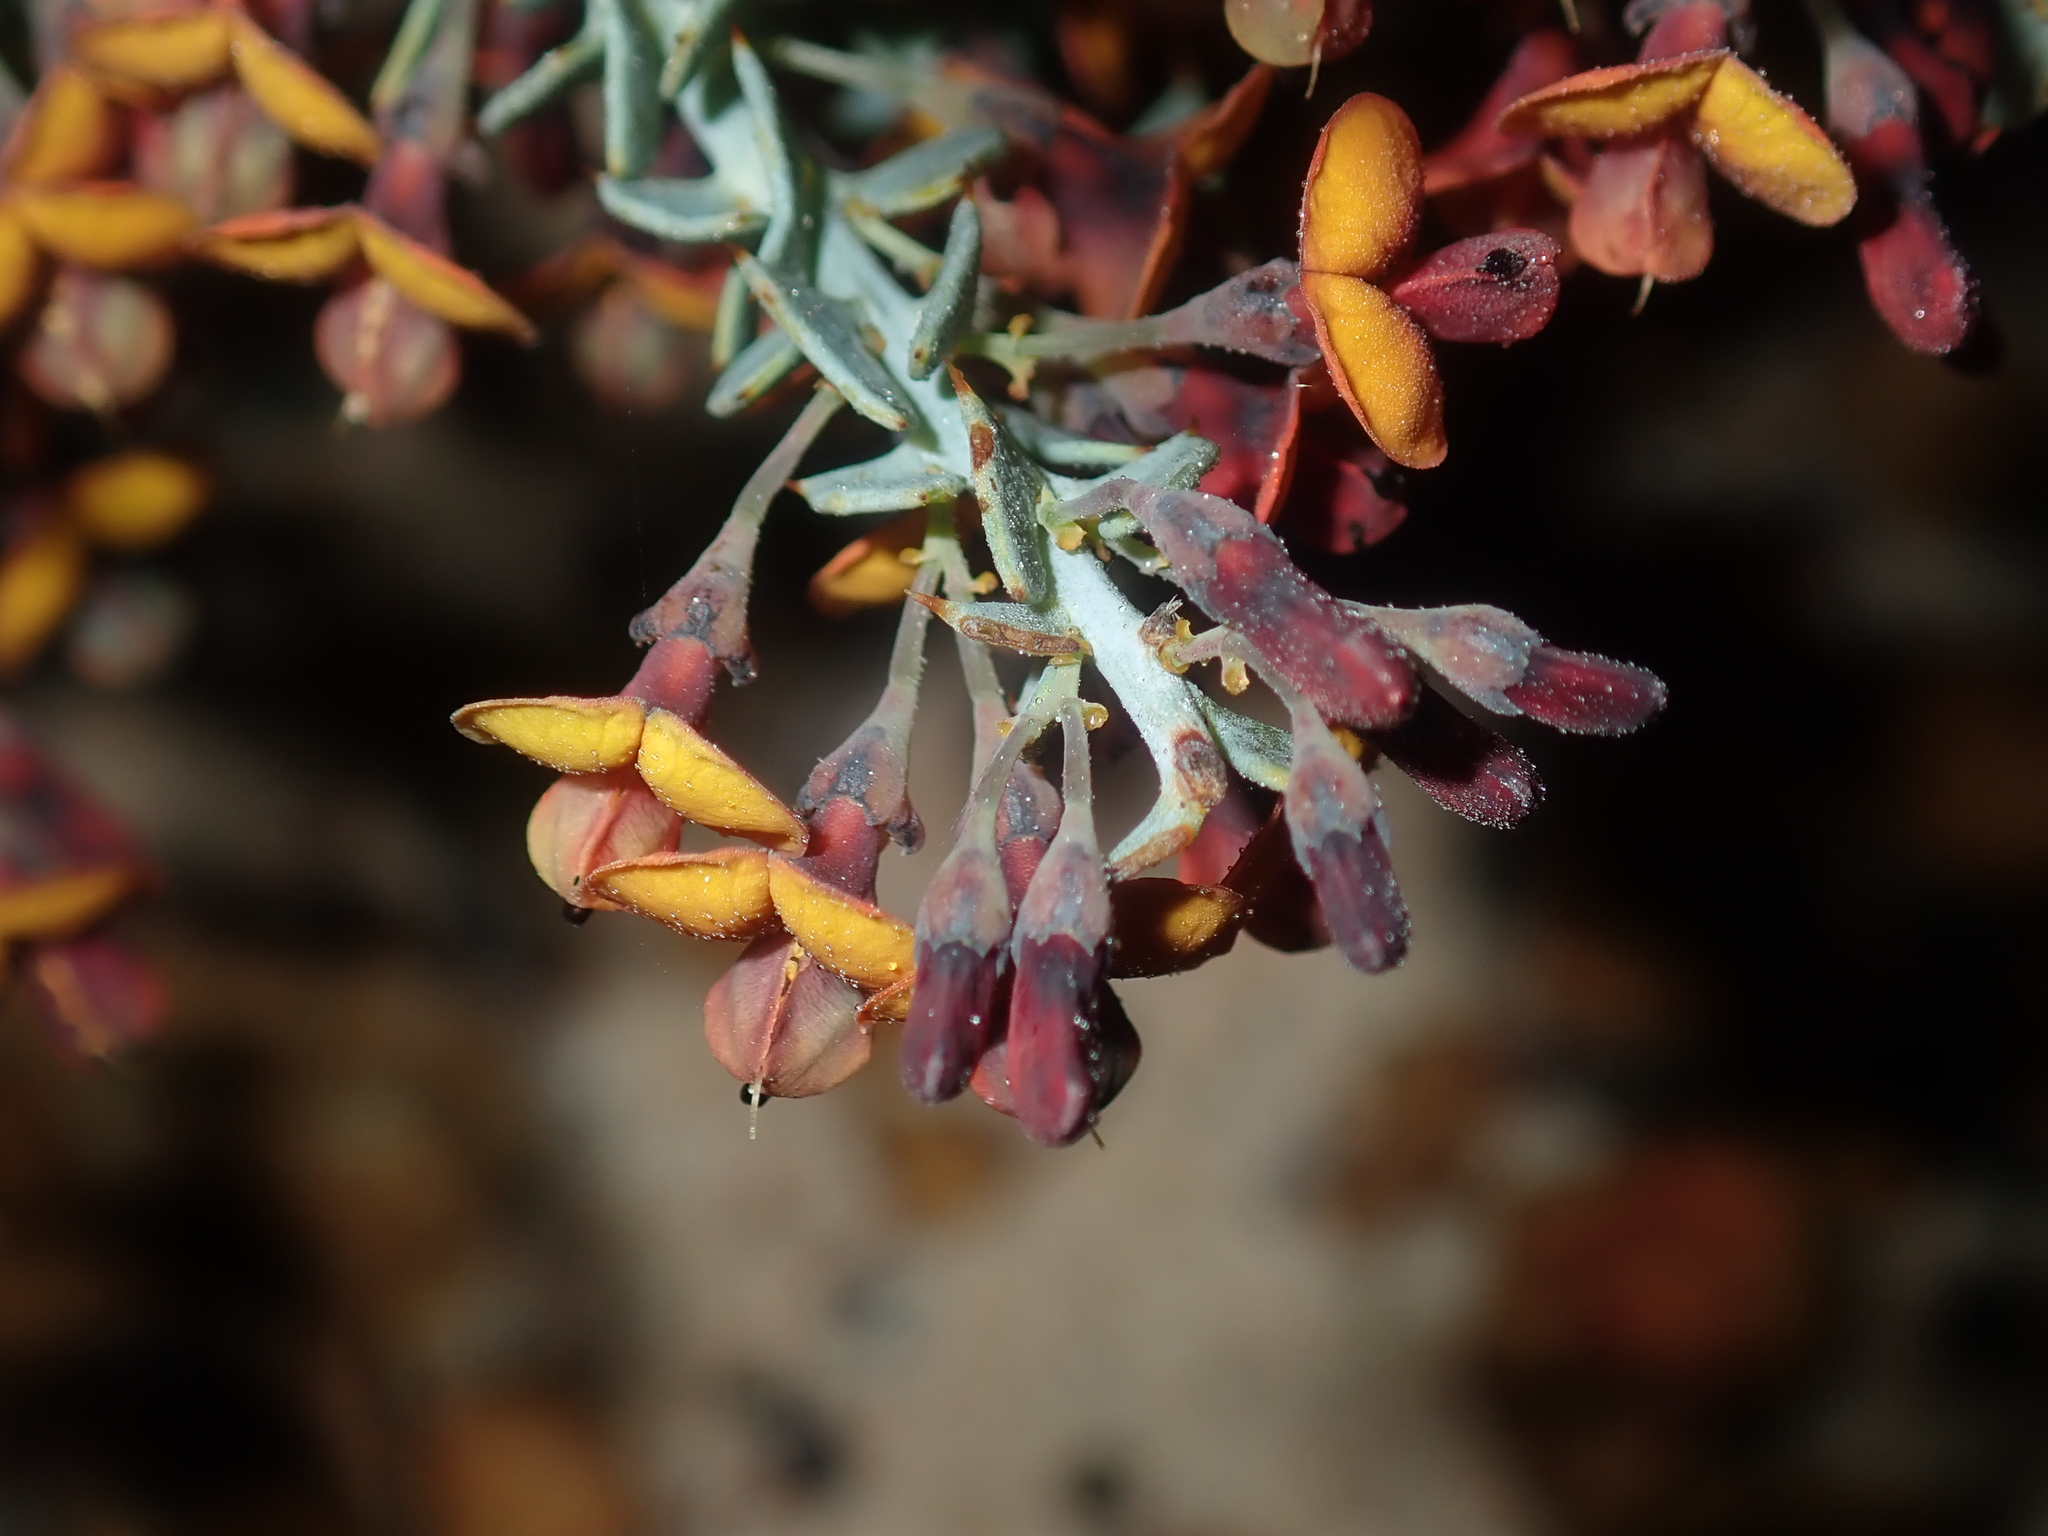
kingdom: Plantae
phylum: Tracheophyta
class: Magnoliopsida
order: Fabales
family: Fabaceae
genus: Daviesia
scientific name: Daviesia podophylla
